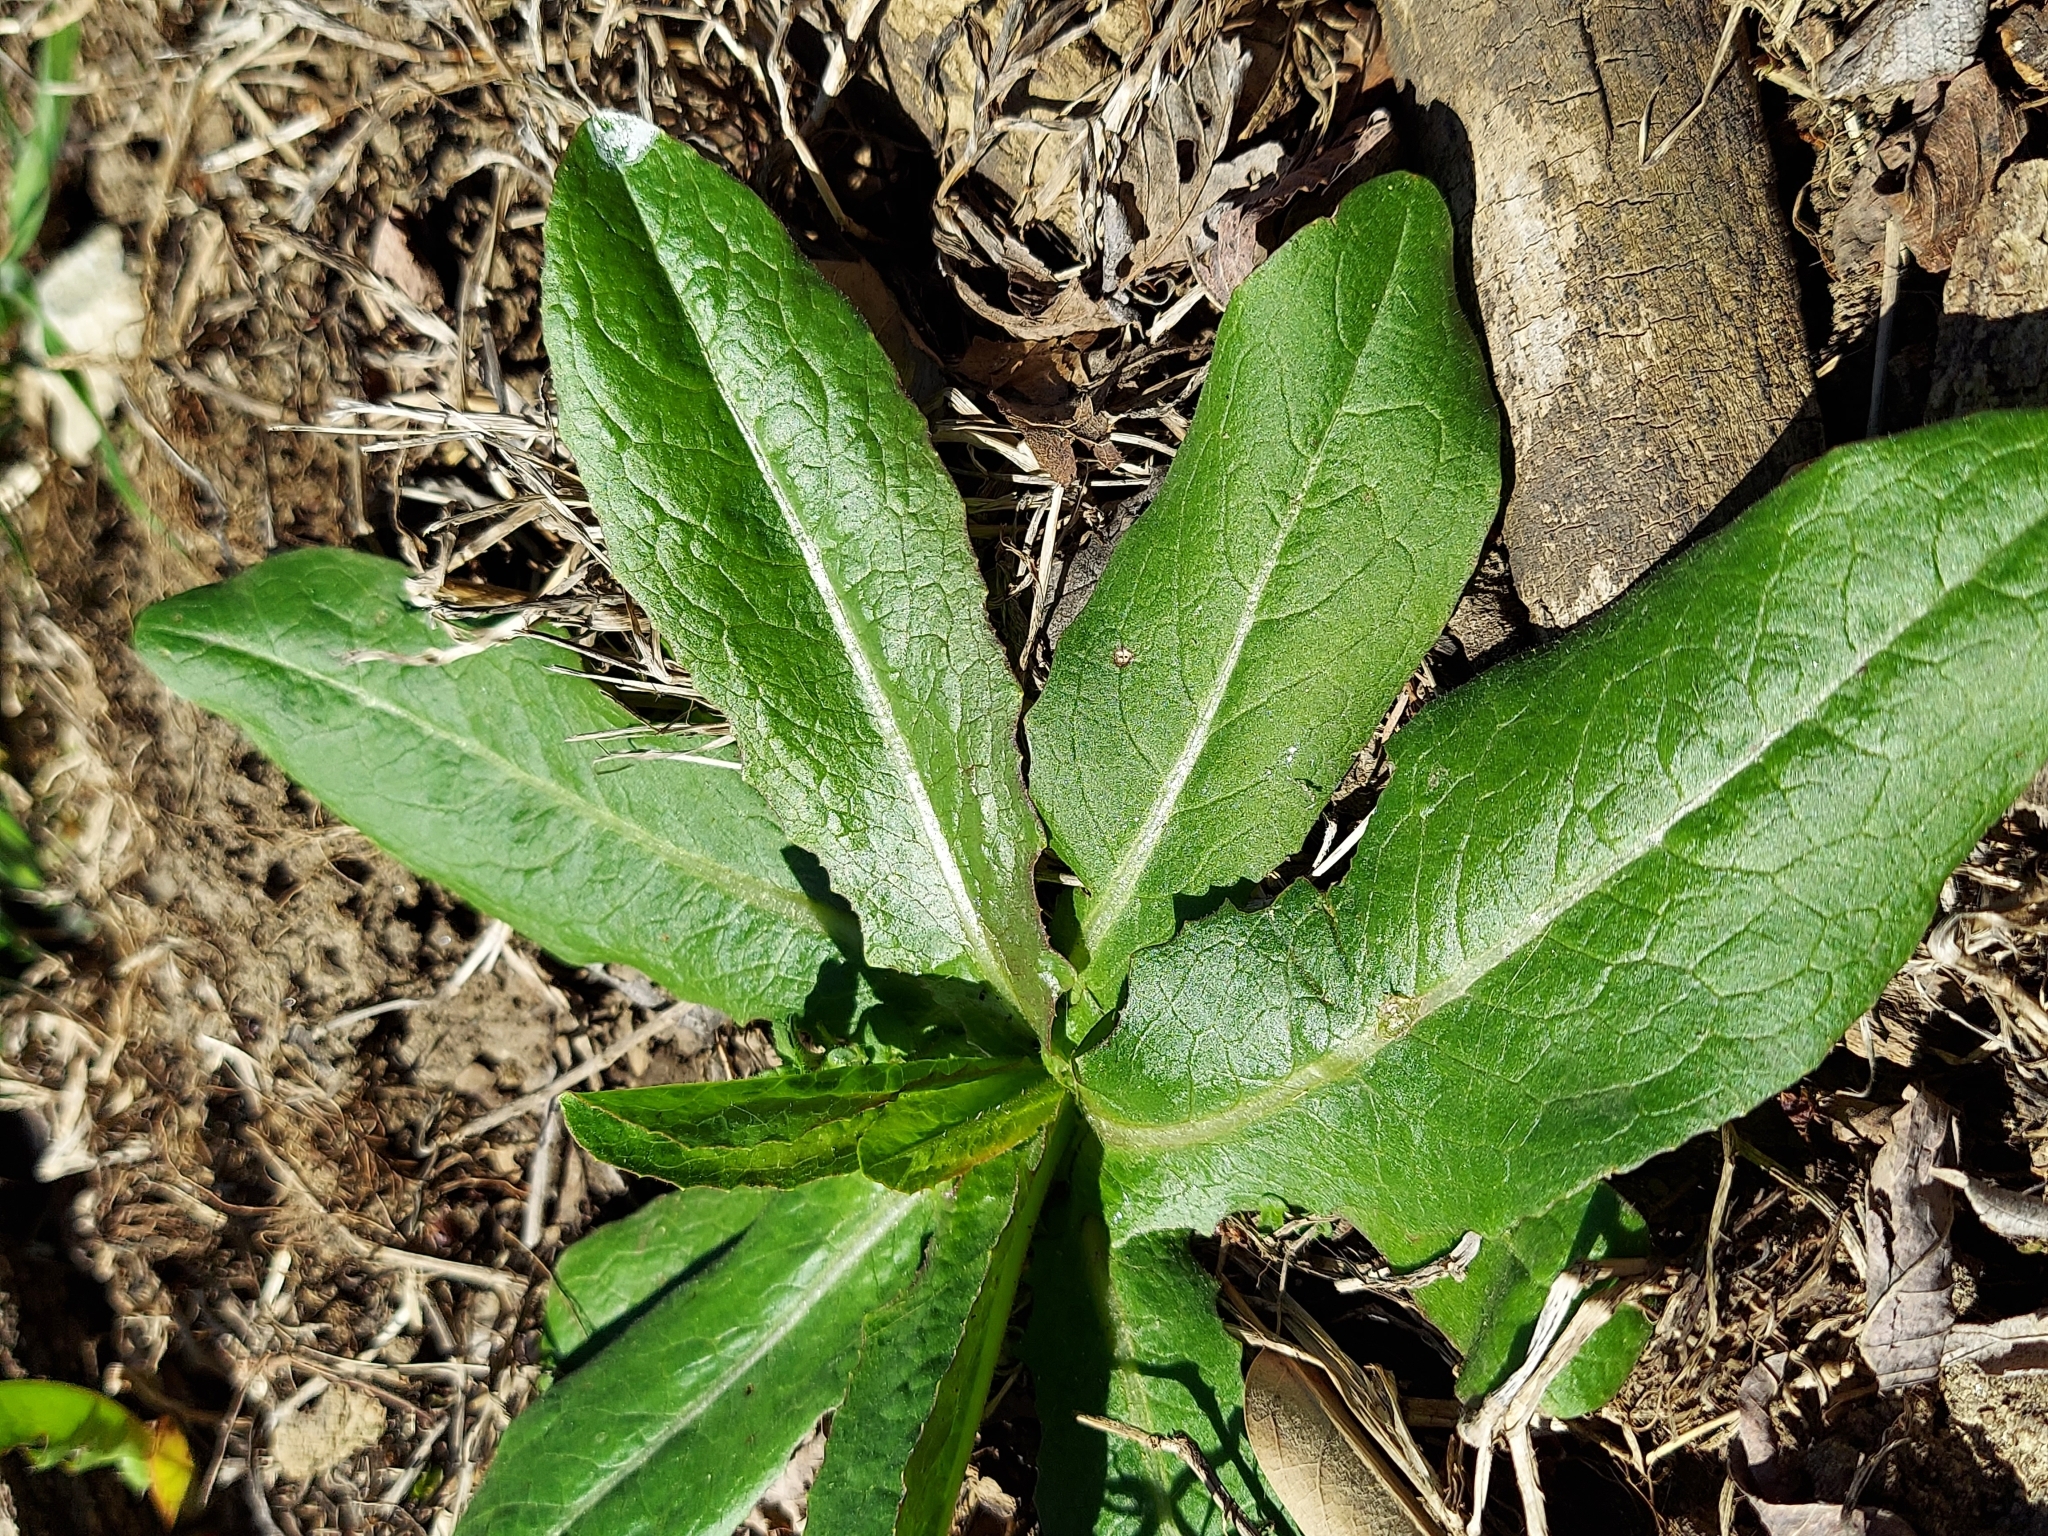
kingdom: Plantae
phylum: Tracheophyta
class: Magnoliopsida
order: Asterales
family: Asteraceae
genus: Lactuca
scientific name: Lactuca serriola
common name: Prickly lettuce
